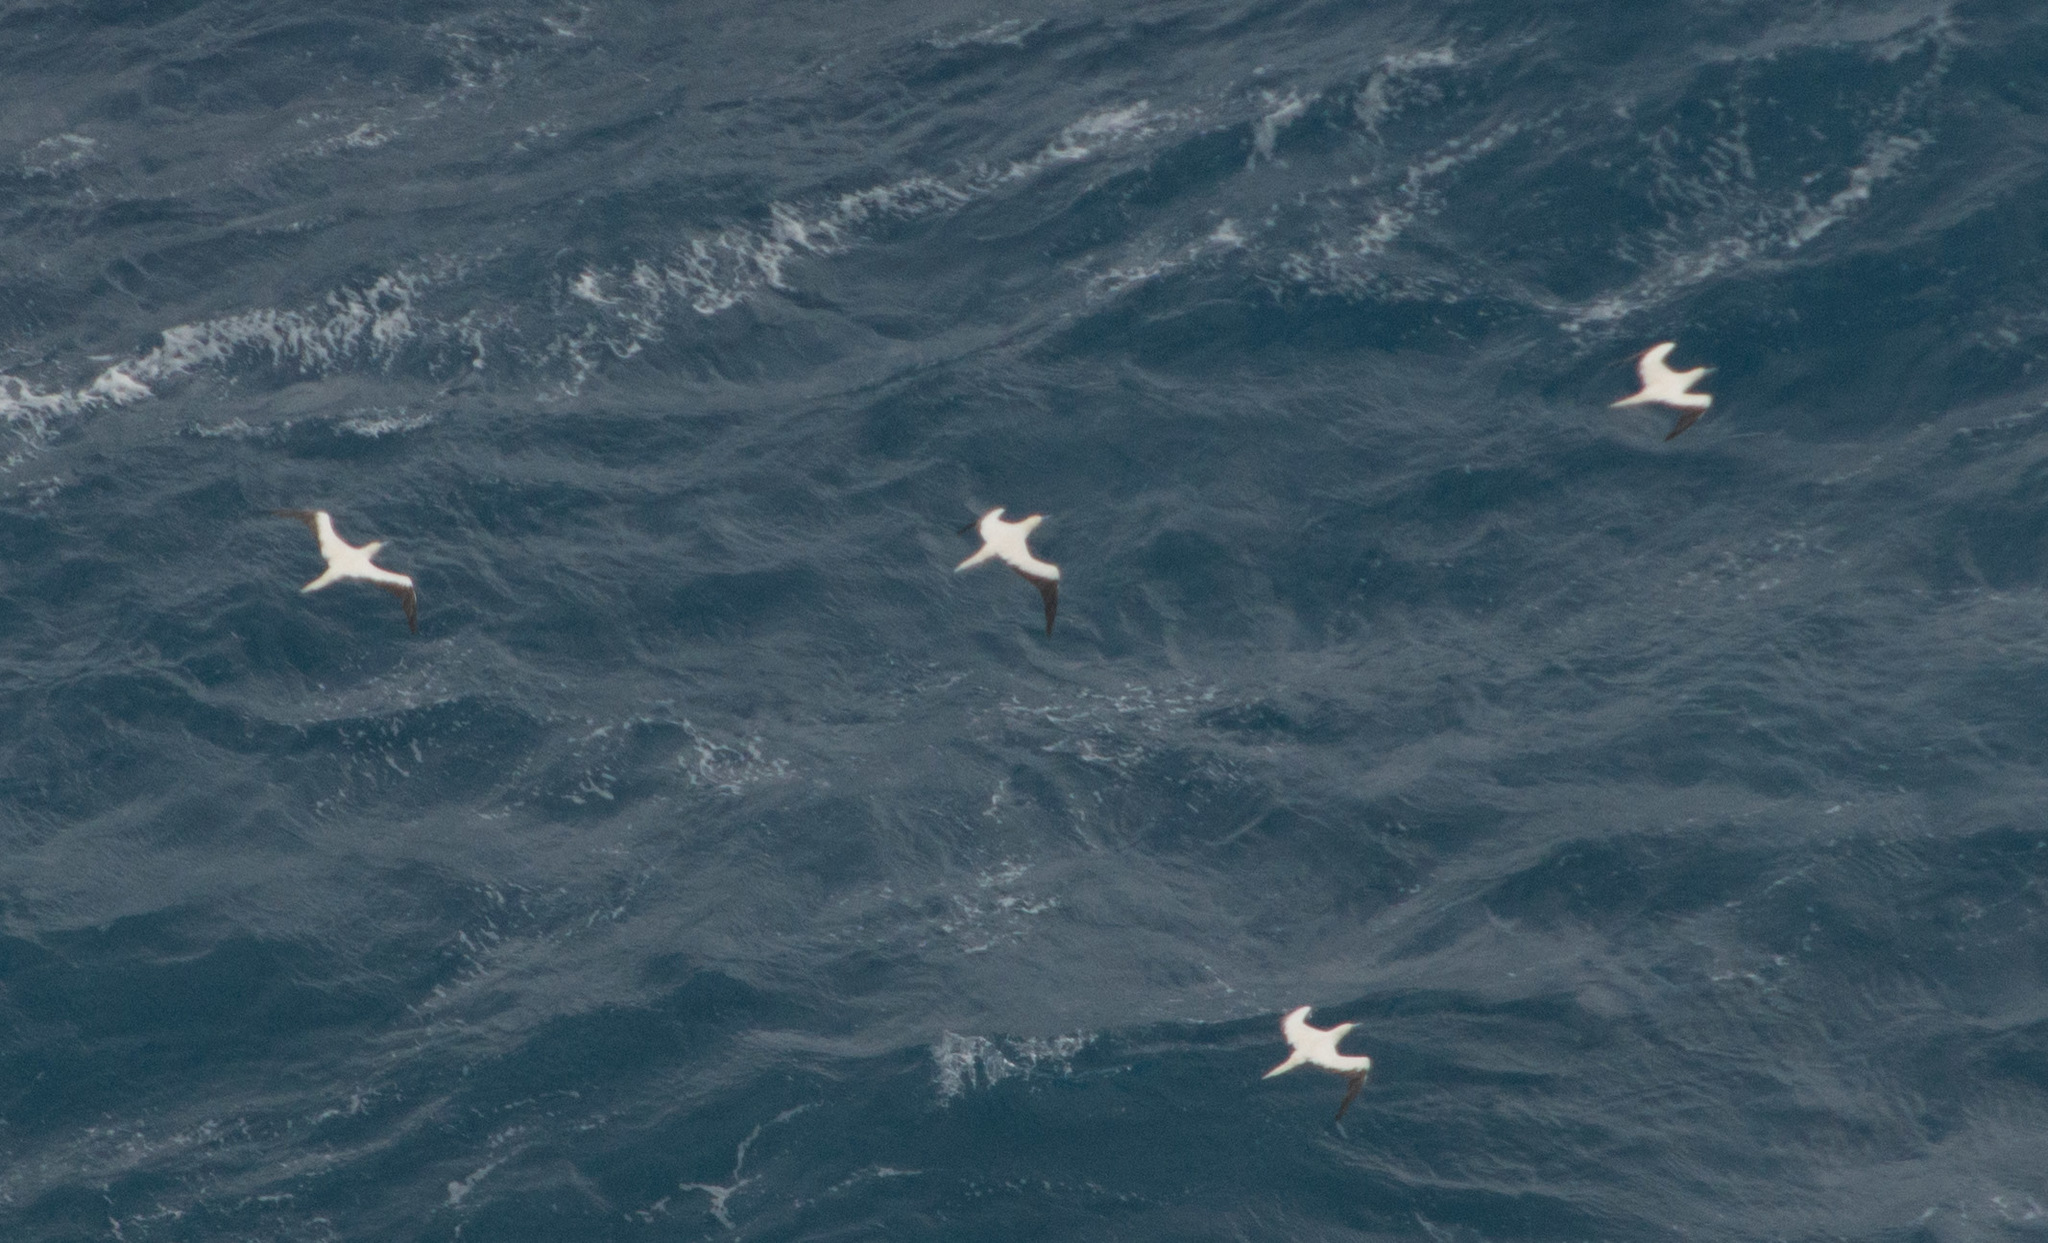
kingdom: Animalia
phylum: Chordata
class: Aves
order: Suliformes
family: Sulidae
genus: Sula
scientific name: Sula sula
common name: Red-footed booby
